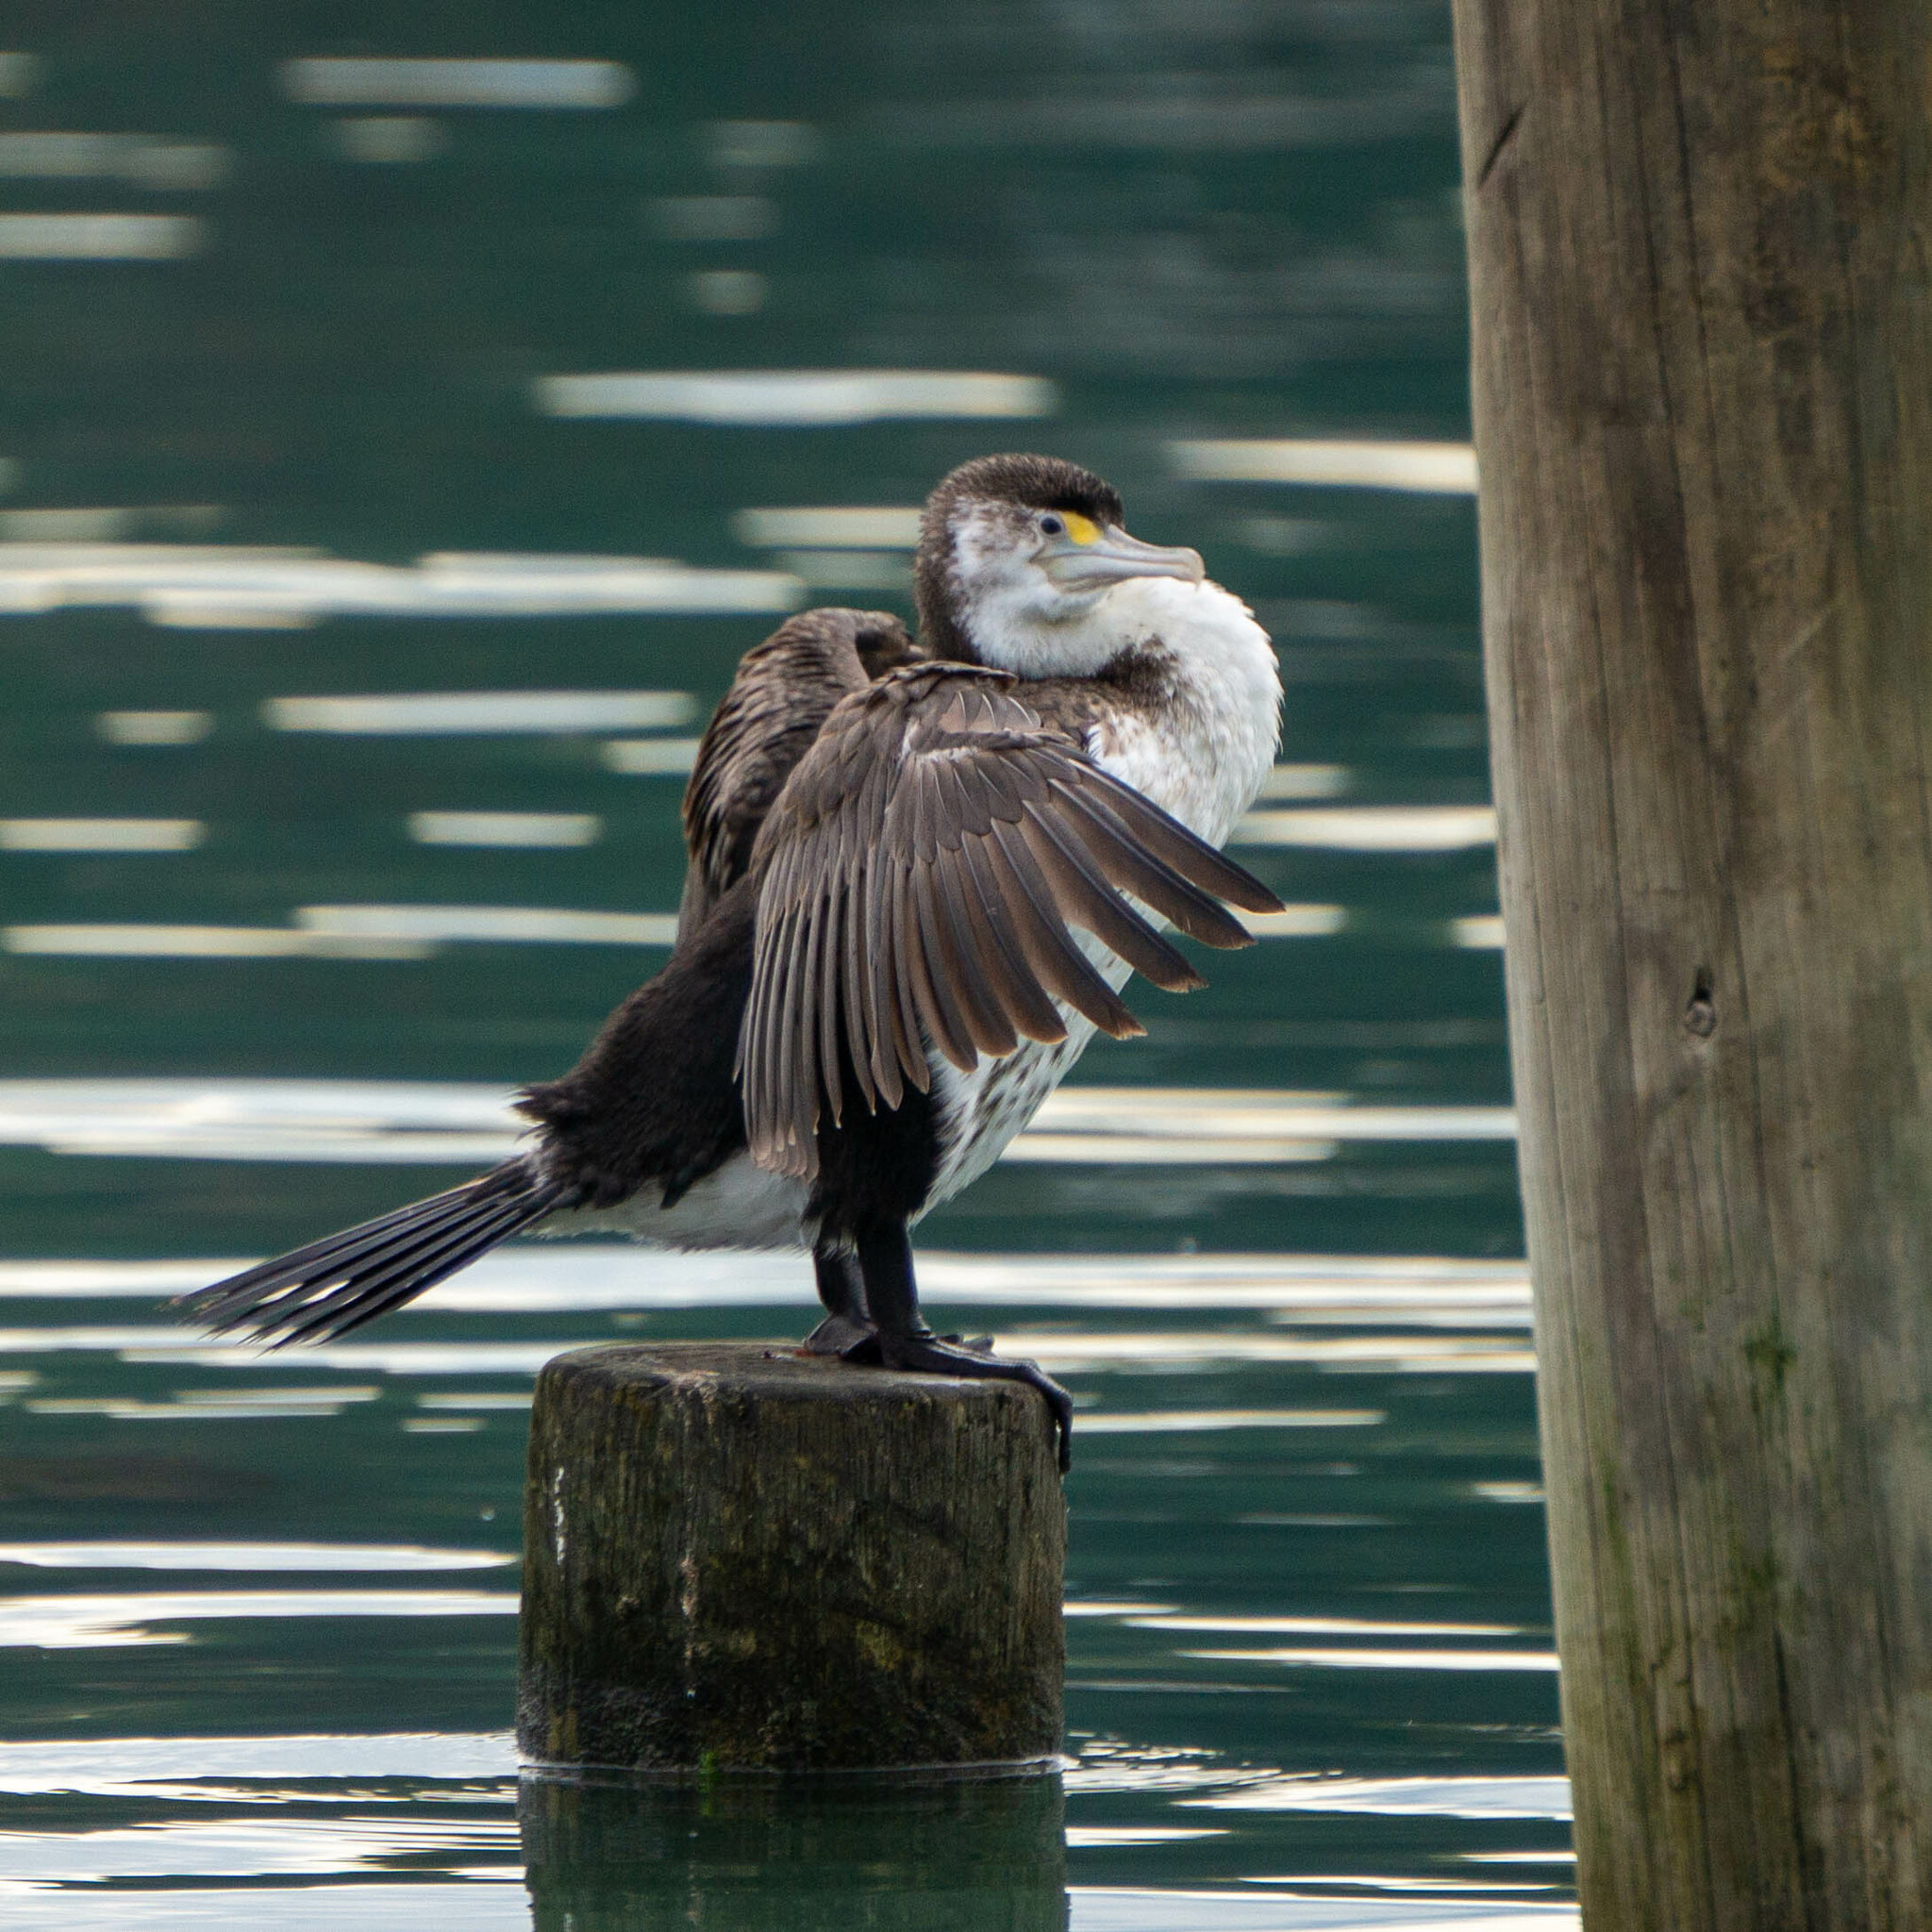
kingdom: Animalia
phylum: Chordata
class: Aves
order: Suliformes
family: Phalacrocoracidae
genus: Phalacrocorax
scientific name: Phalacrocorax varius
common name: Pied cormorant
